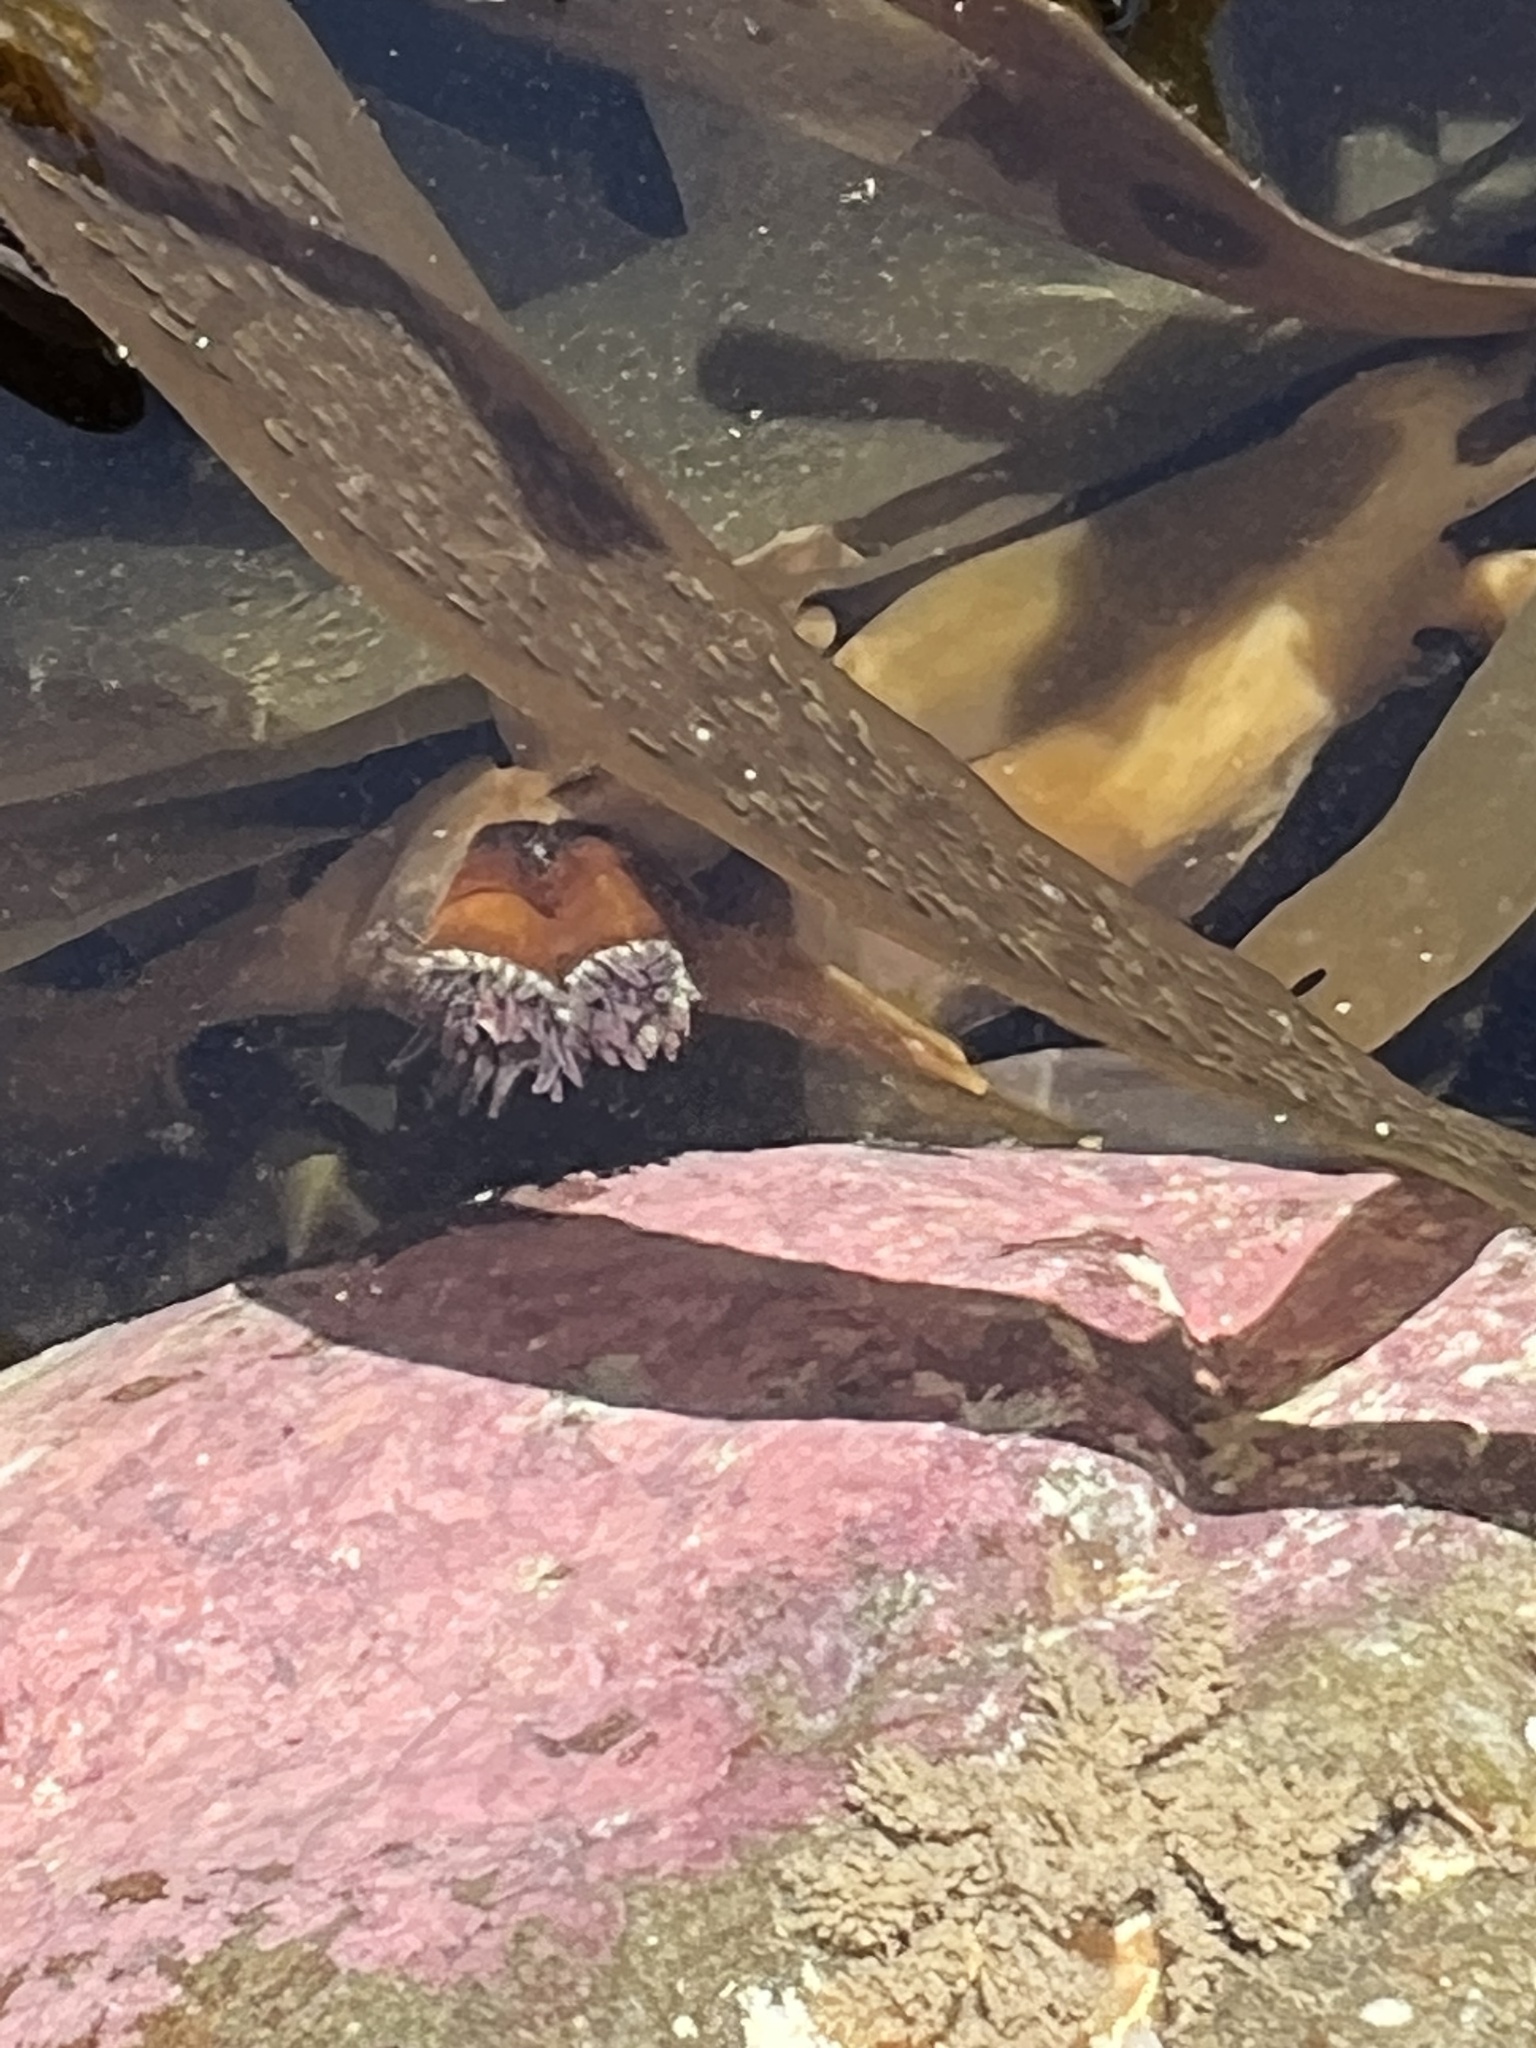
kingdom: Animalia
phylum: Cnidaria
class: Anthozoa
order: Actiniaria
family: Hormathiidae
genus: Handactis
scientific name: Handactis nutrix
